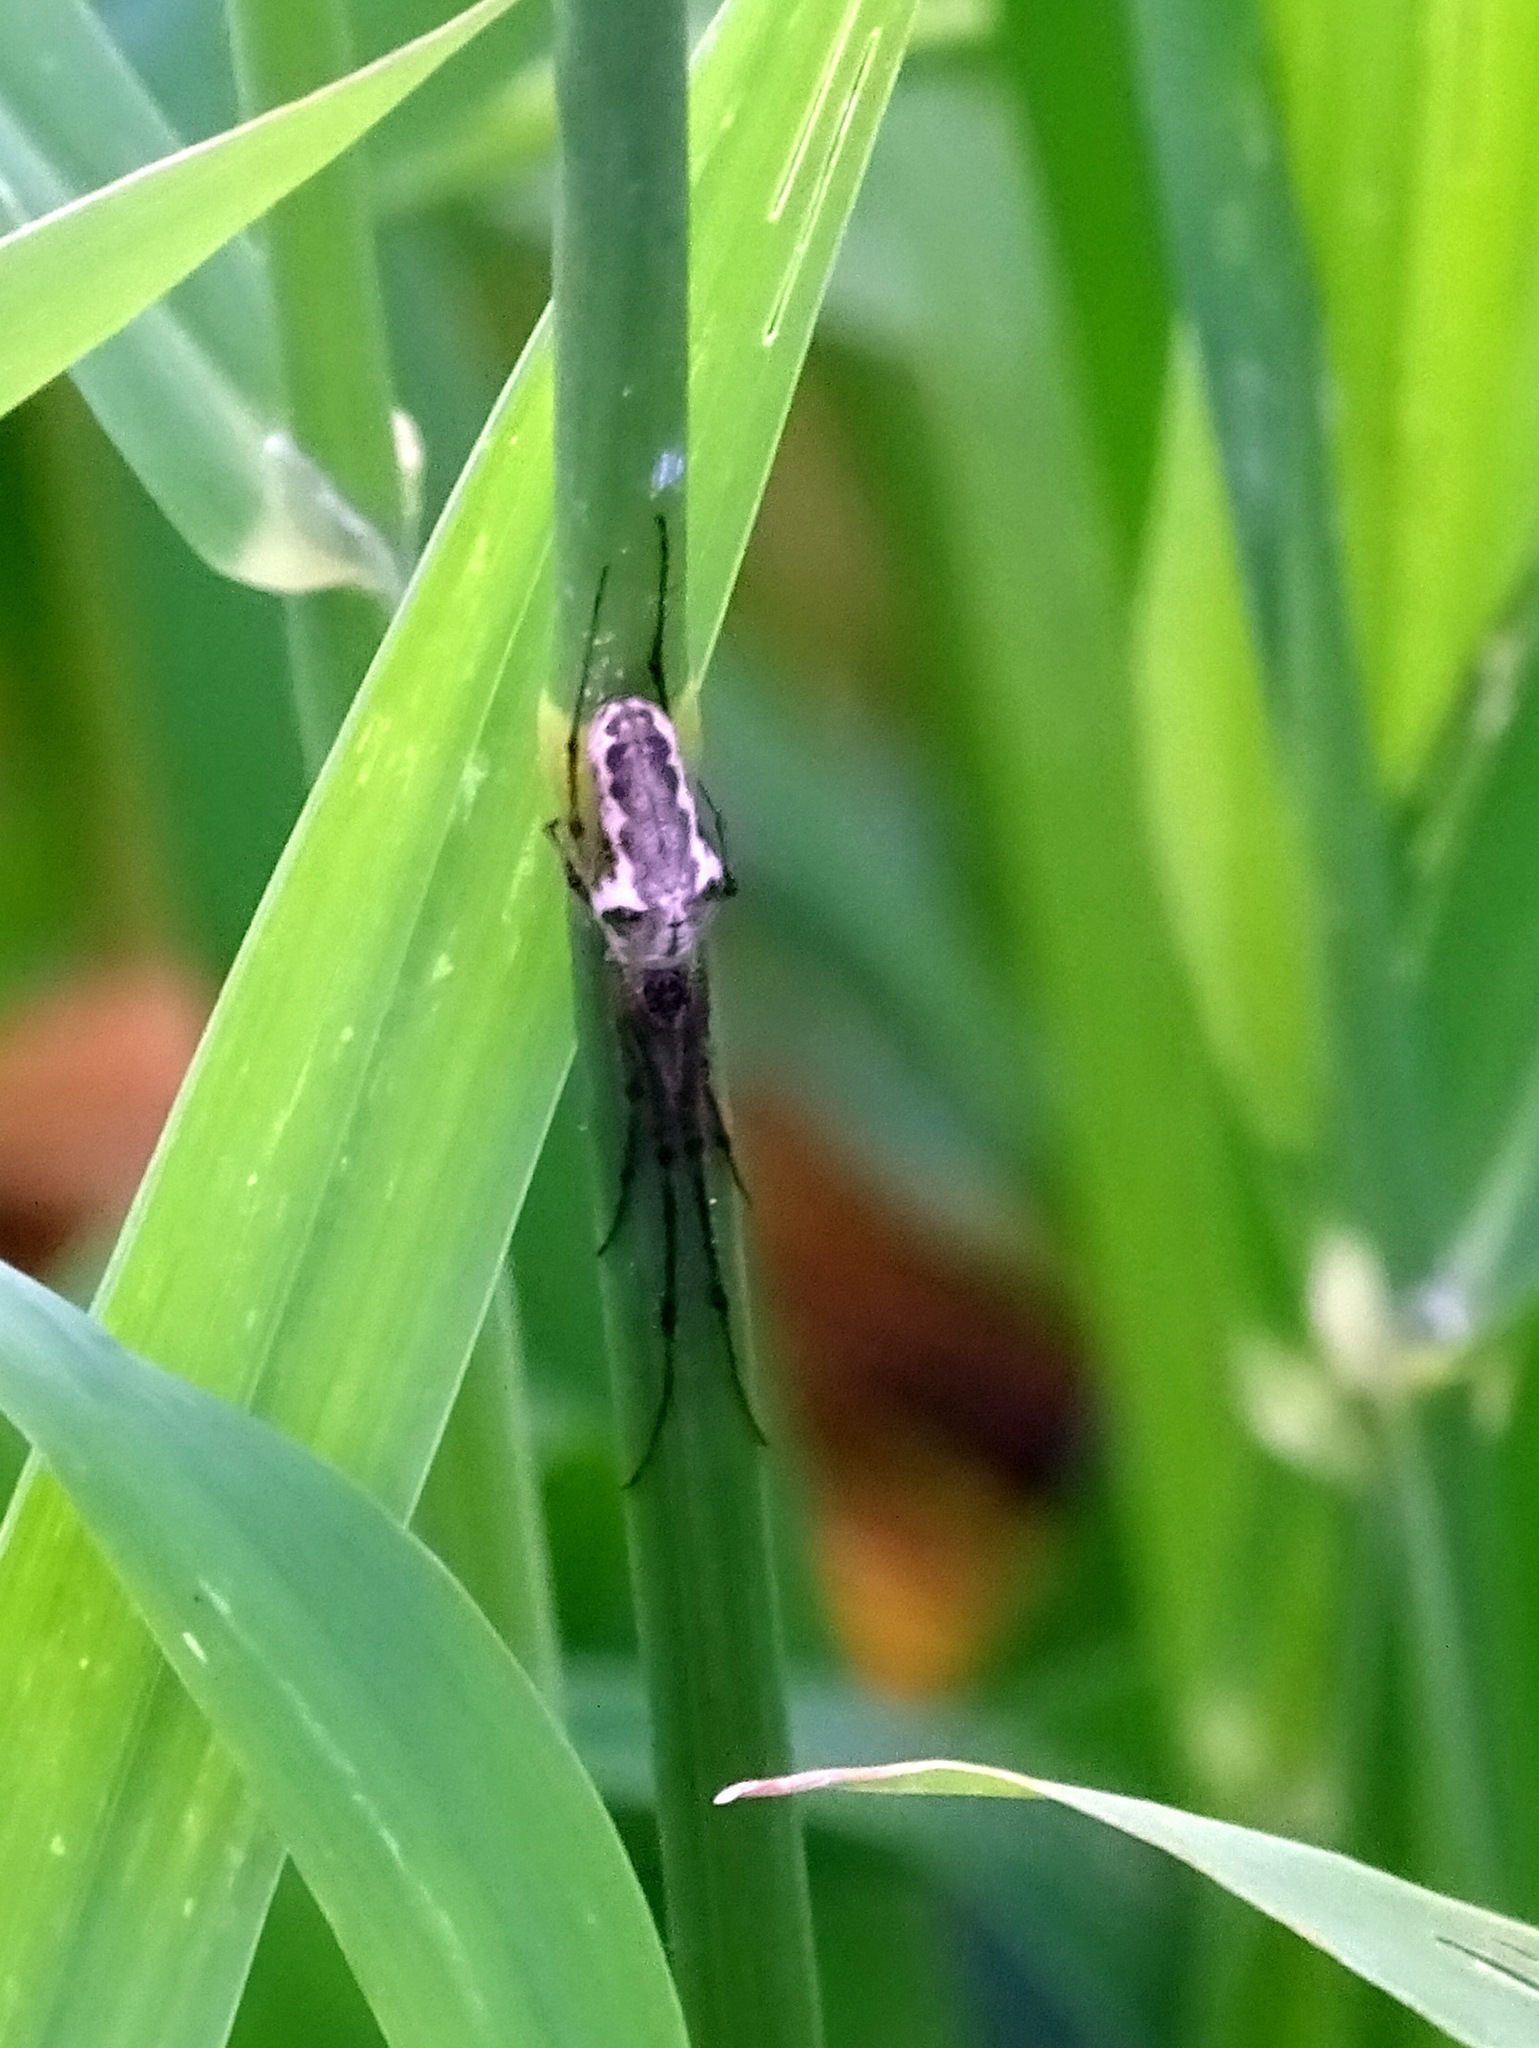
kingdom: Animalia
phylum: Arthropoda
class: Arachnida
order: Araneae
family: Tetragnathidae
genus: Tetragnatha
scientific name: Tetragnatha obtusa
